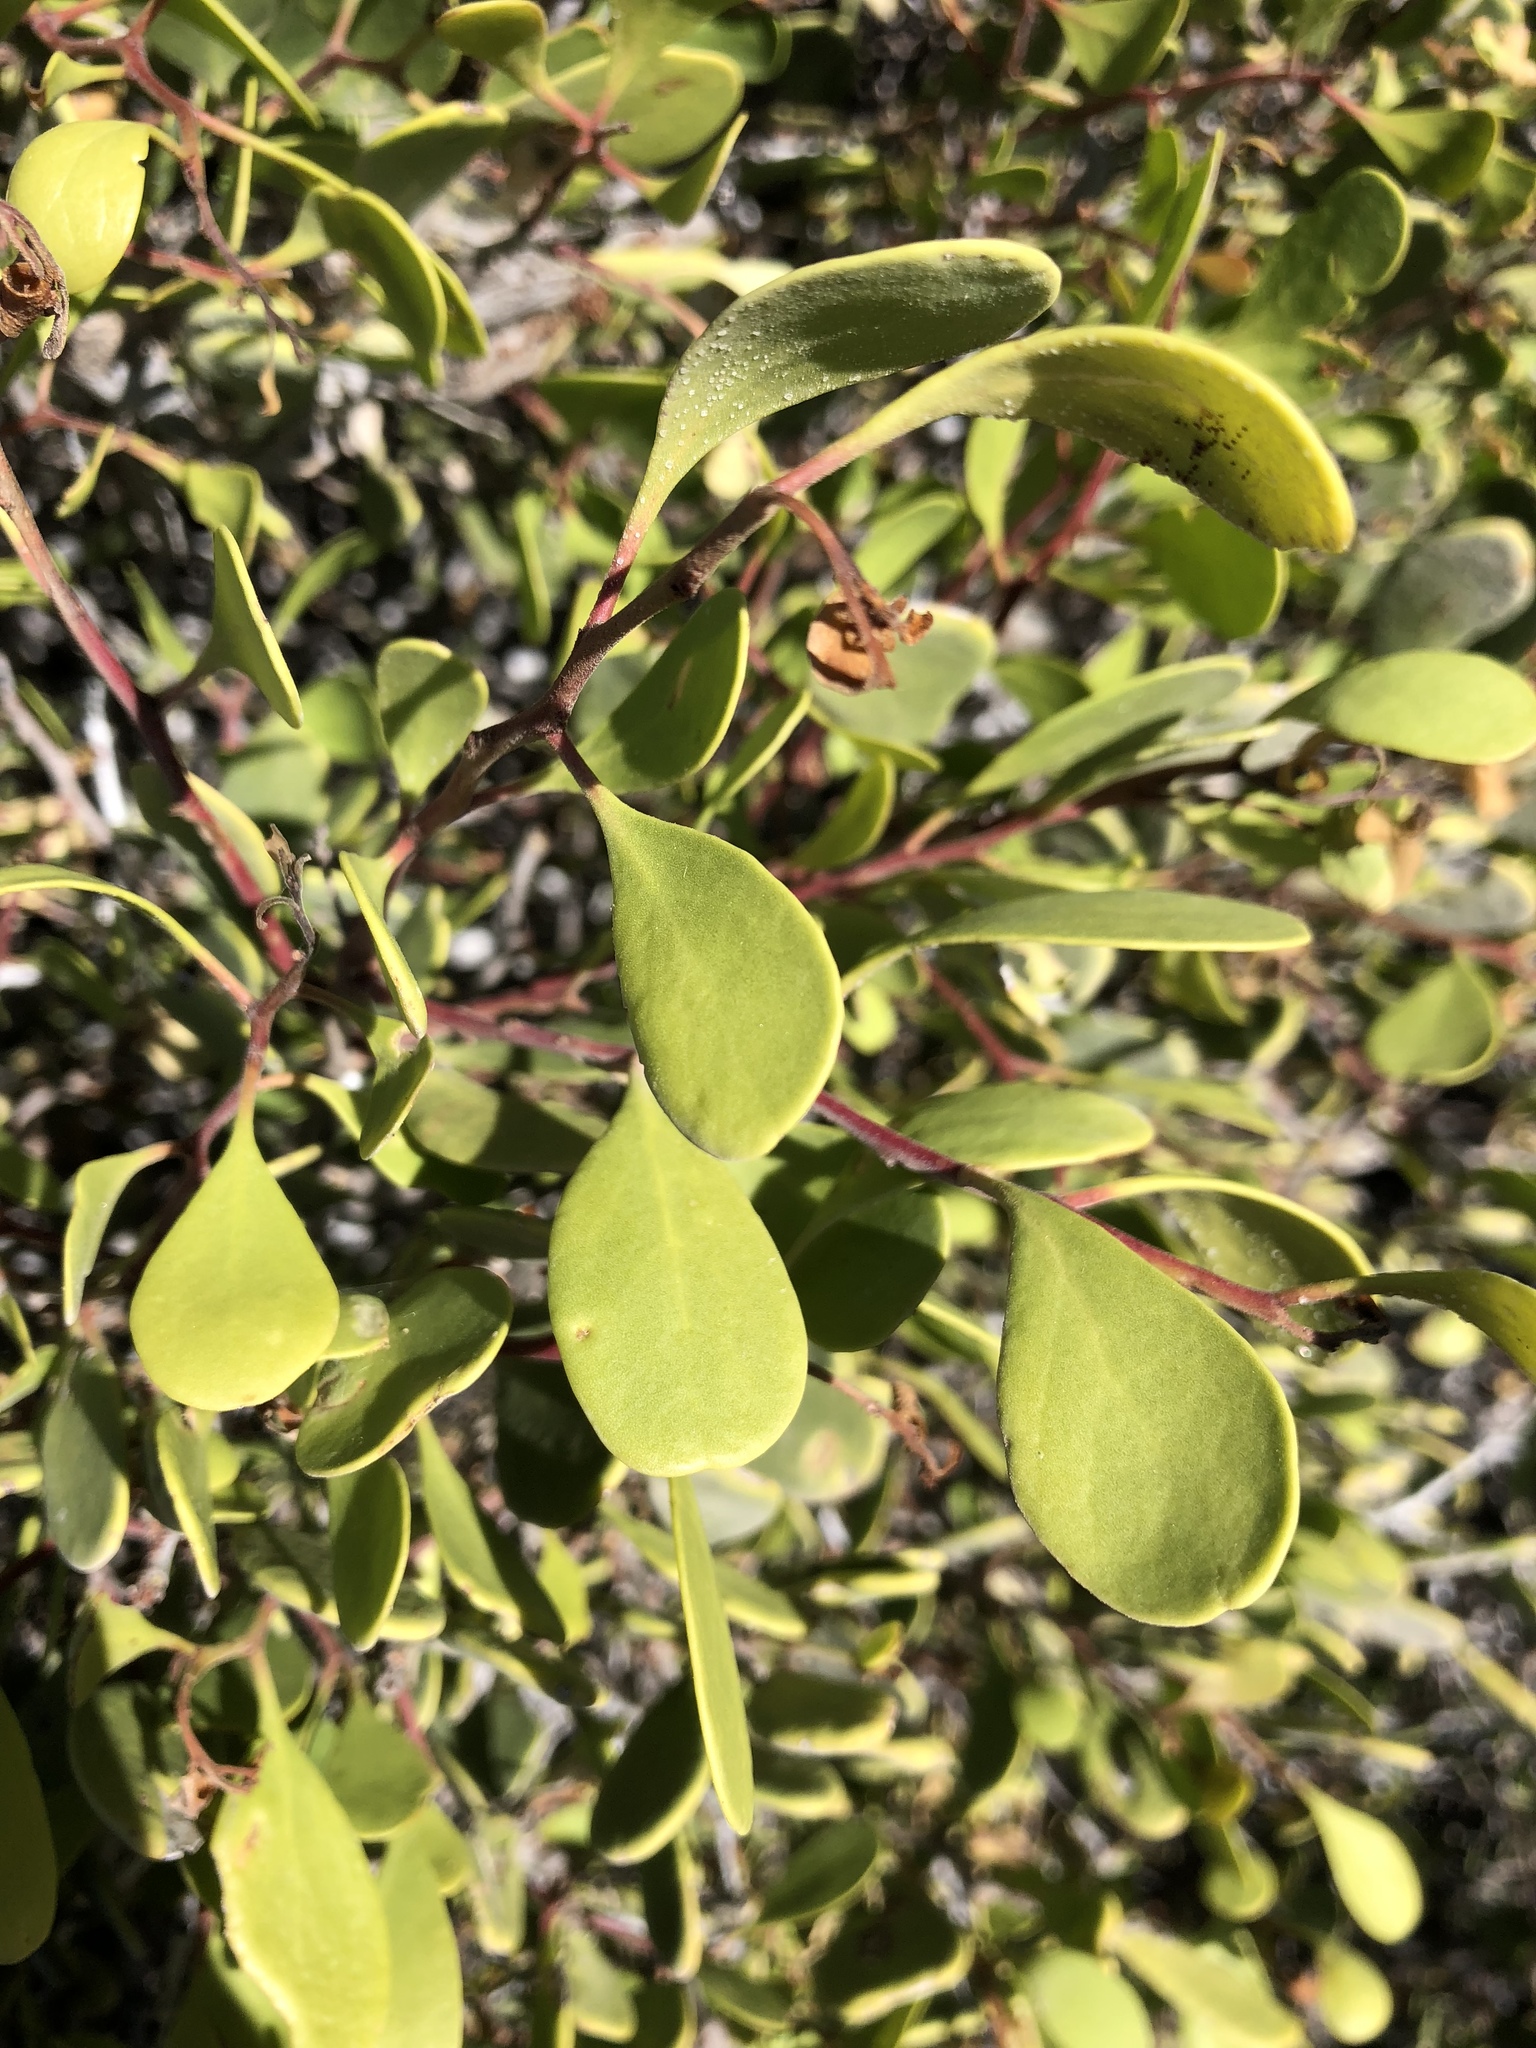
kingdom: Plantae
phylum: Tracheophyta
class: Magnoliopsida
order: Celastrales
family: Celastraceae
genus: Tricerma
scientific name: Tricerma phyllanthoides
